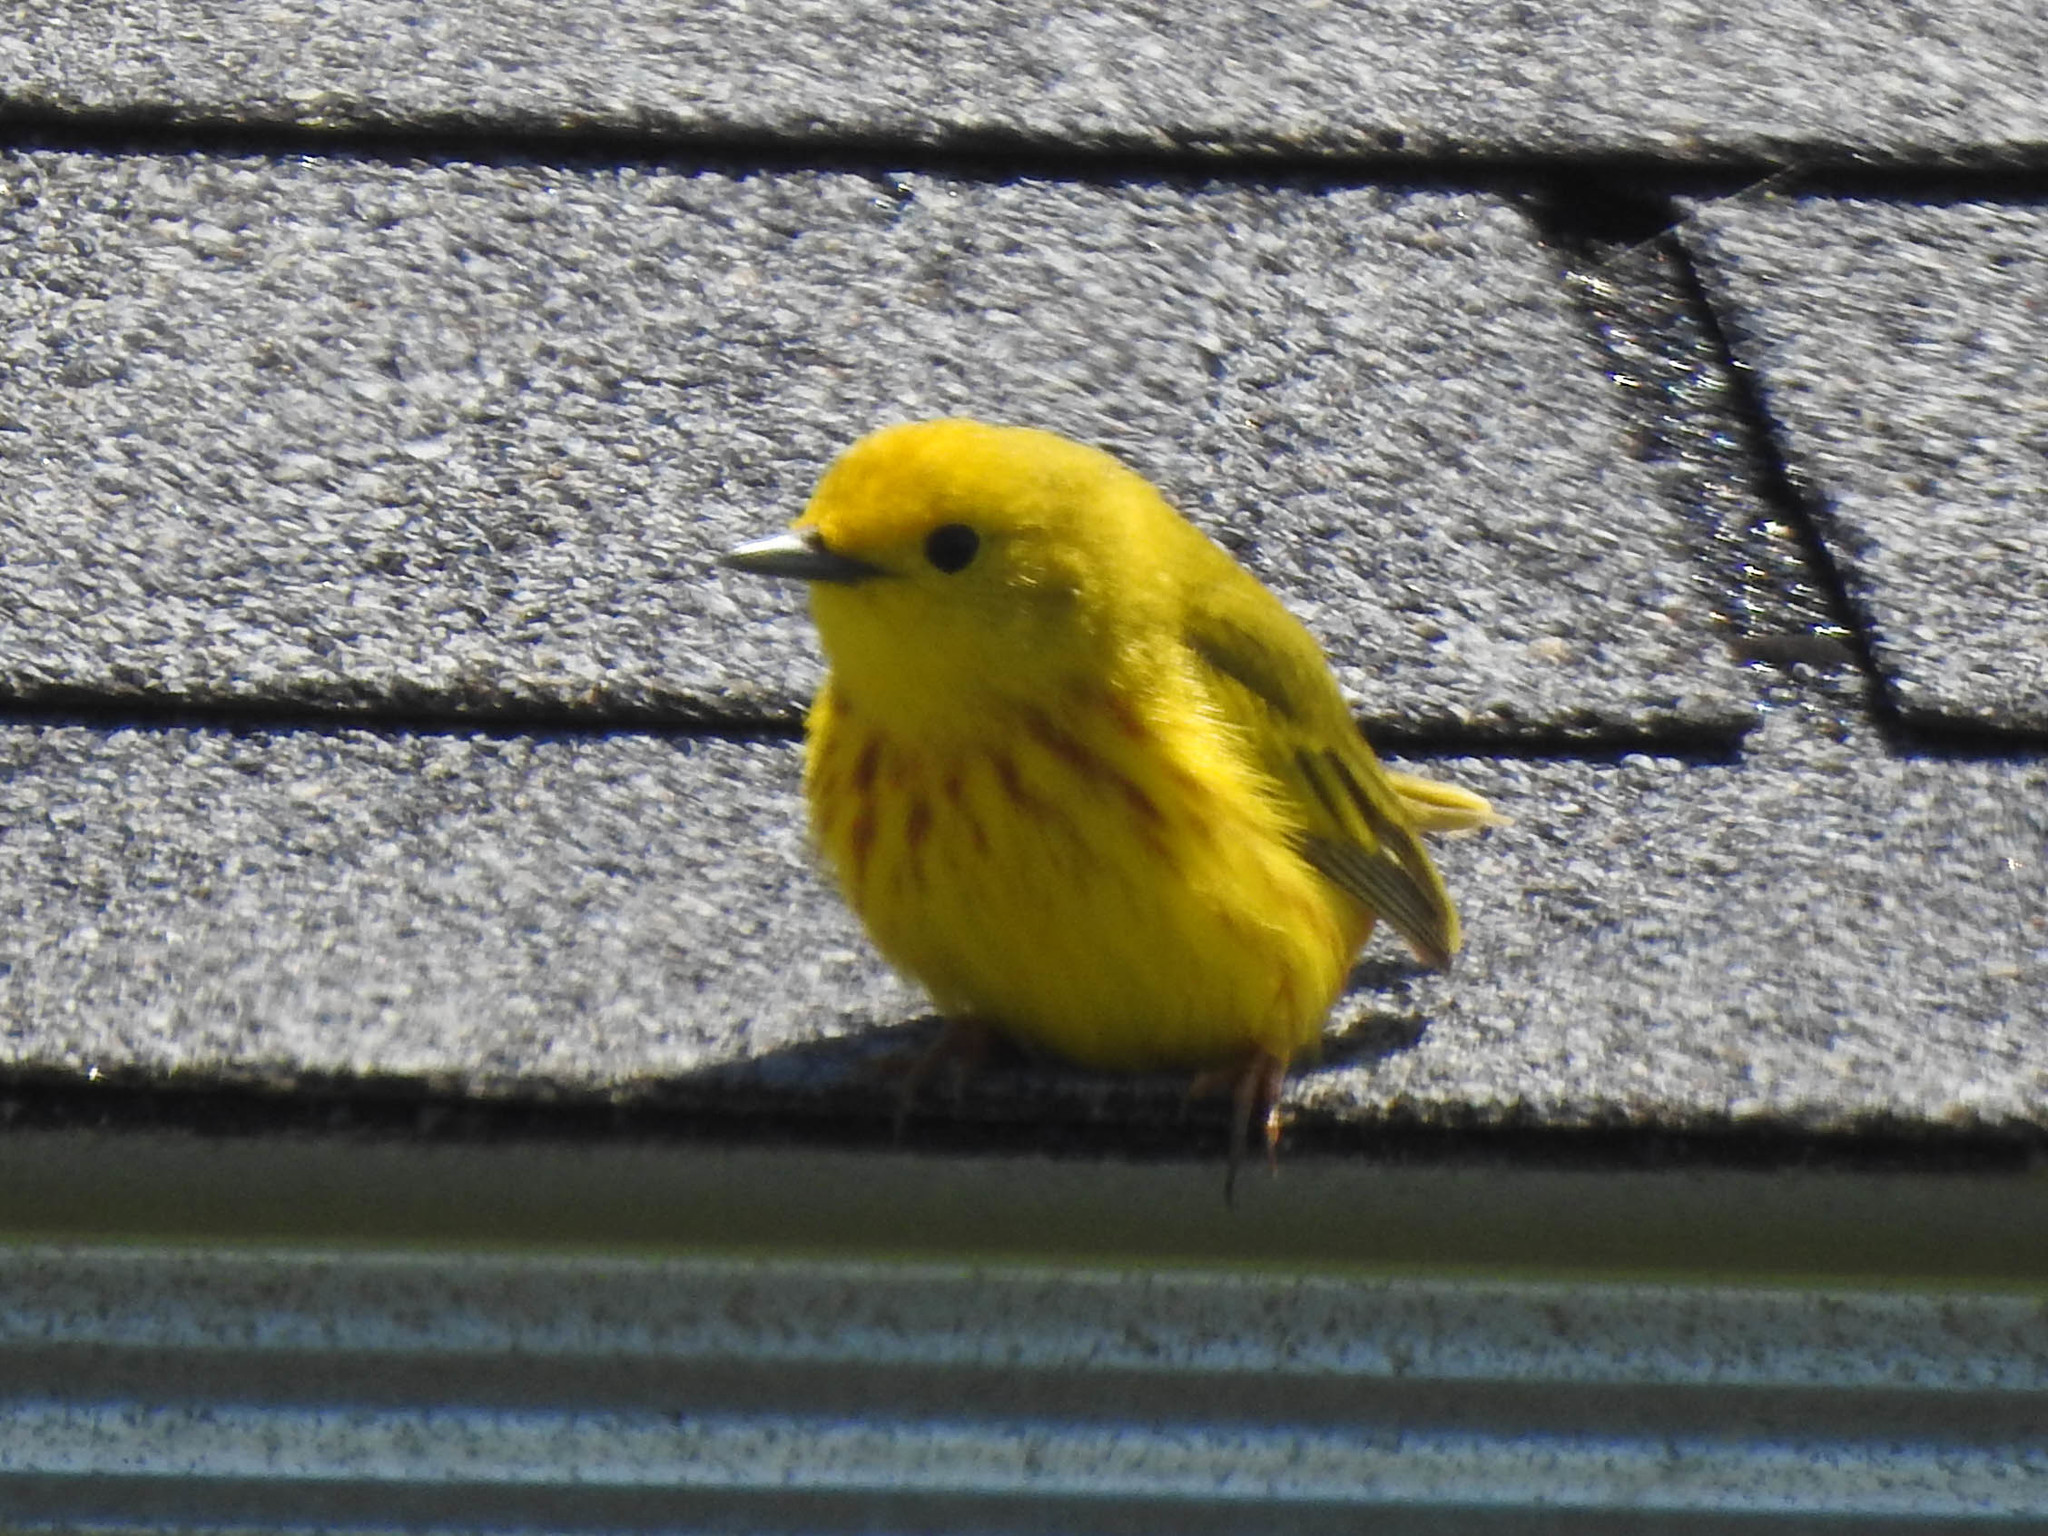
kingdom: Animalia
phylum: Chordata
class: Aves
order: Passeriformes
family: Parulidae
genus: Setophaga
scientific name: Setophaga petechia
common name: Yellow warbler
